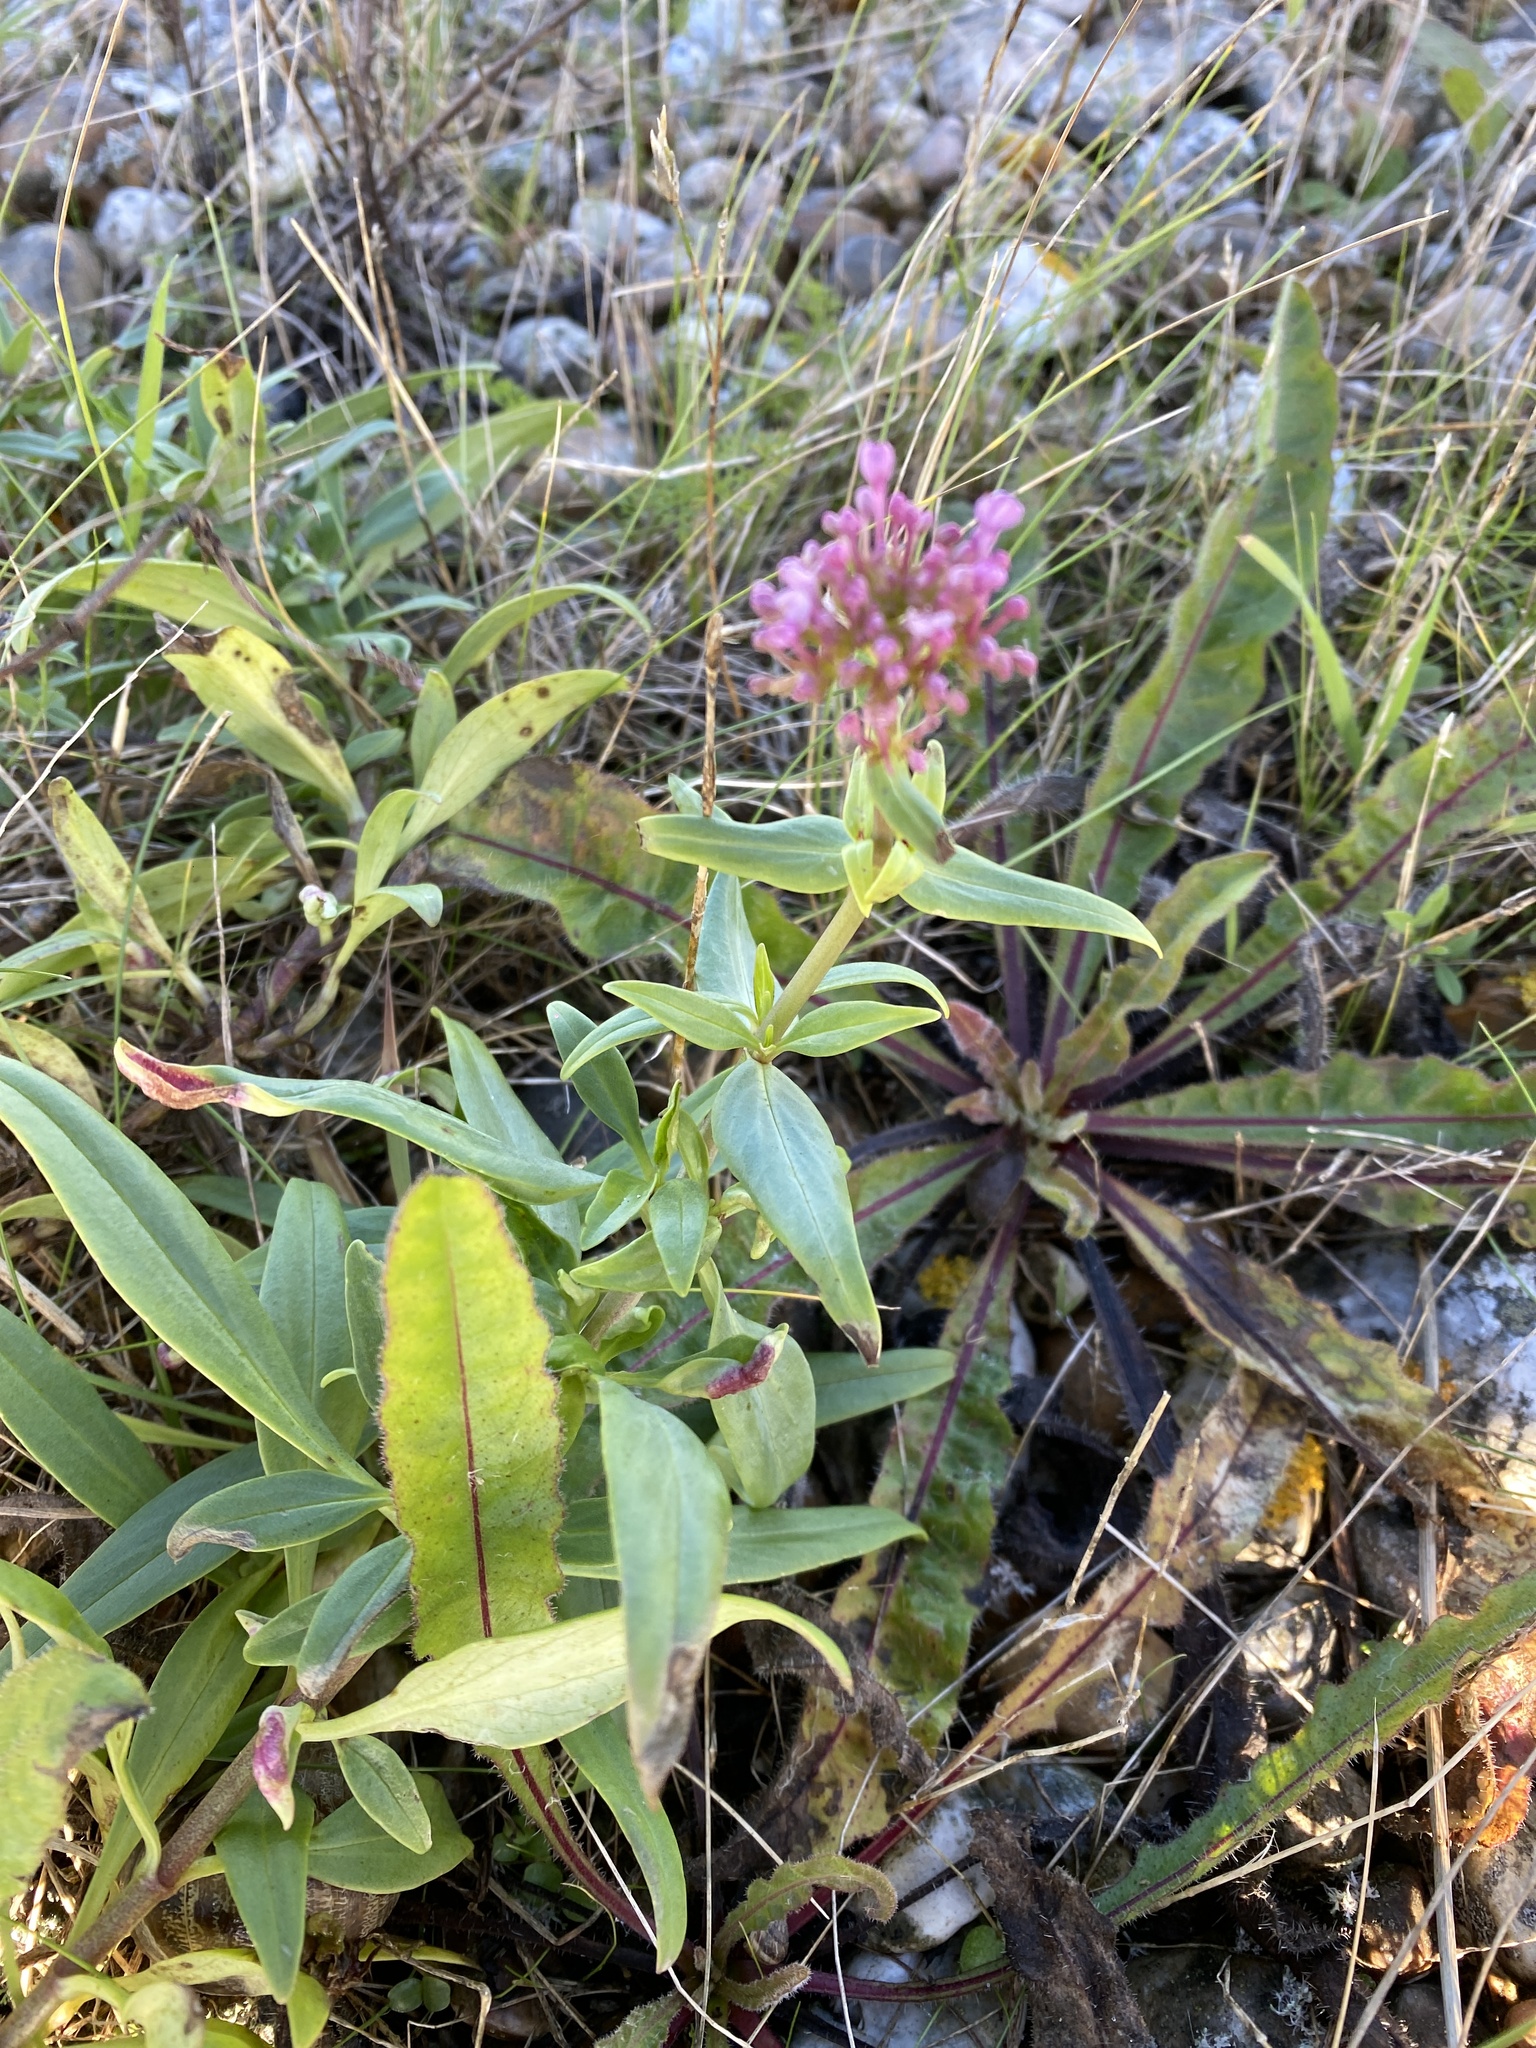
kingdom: Plantae
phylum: Tracheophyta
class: Magnoliopsida
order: Dipsacales
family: Caprifoliaceae
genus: Centranthus
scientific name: Centranthus ruber
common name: Red valerian
